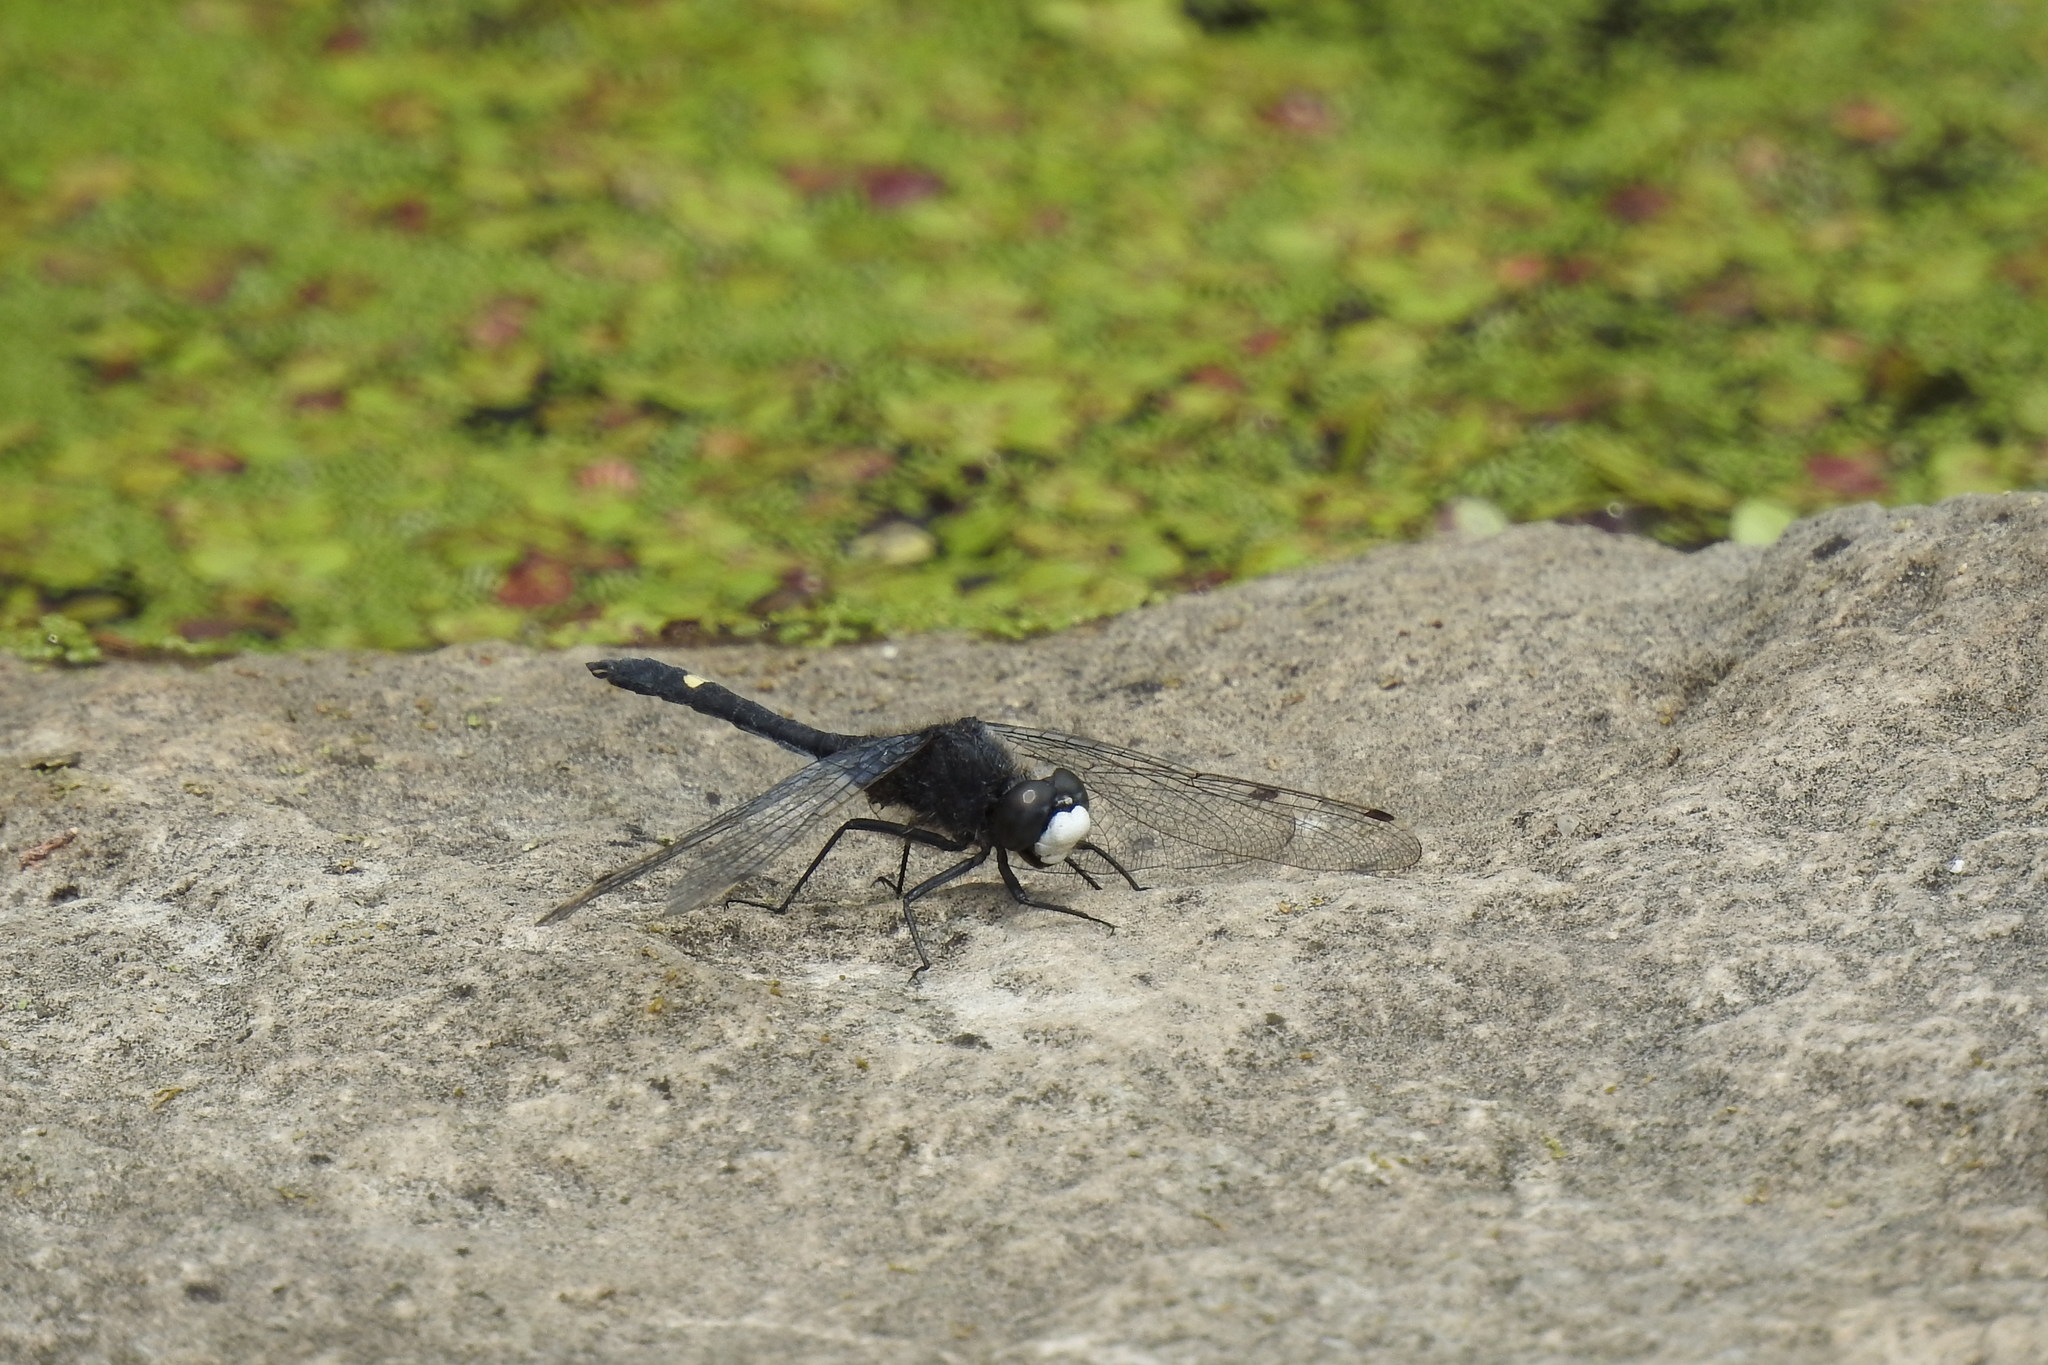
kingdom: Animalia
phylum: Arthropoda
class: Insecta
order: Odonata
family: Libellulidae
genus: Leucorrhinia
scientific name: Leucorrhinia intacta
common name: Dot-tailed whiteface
